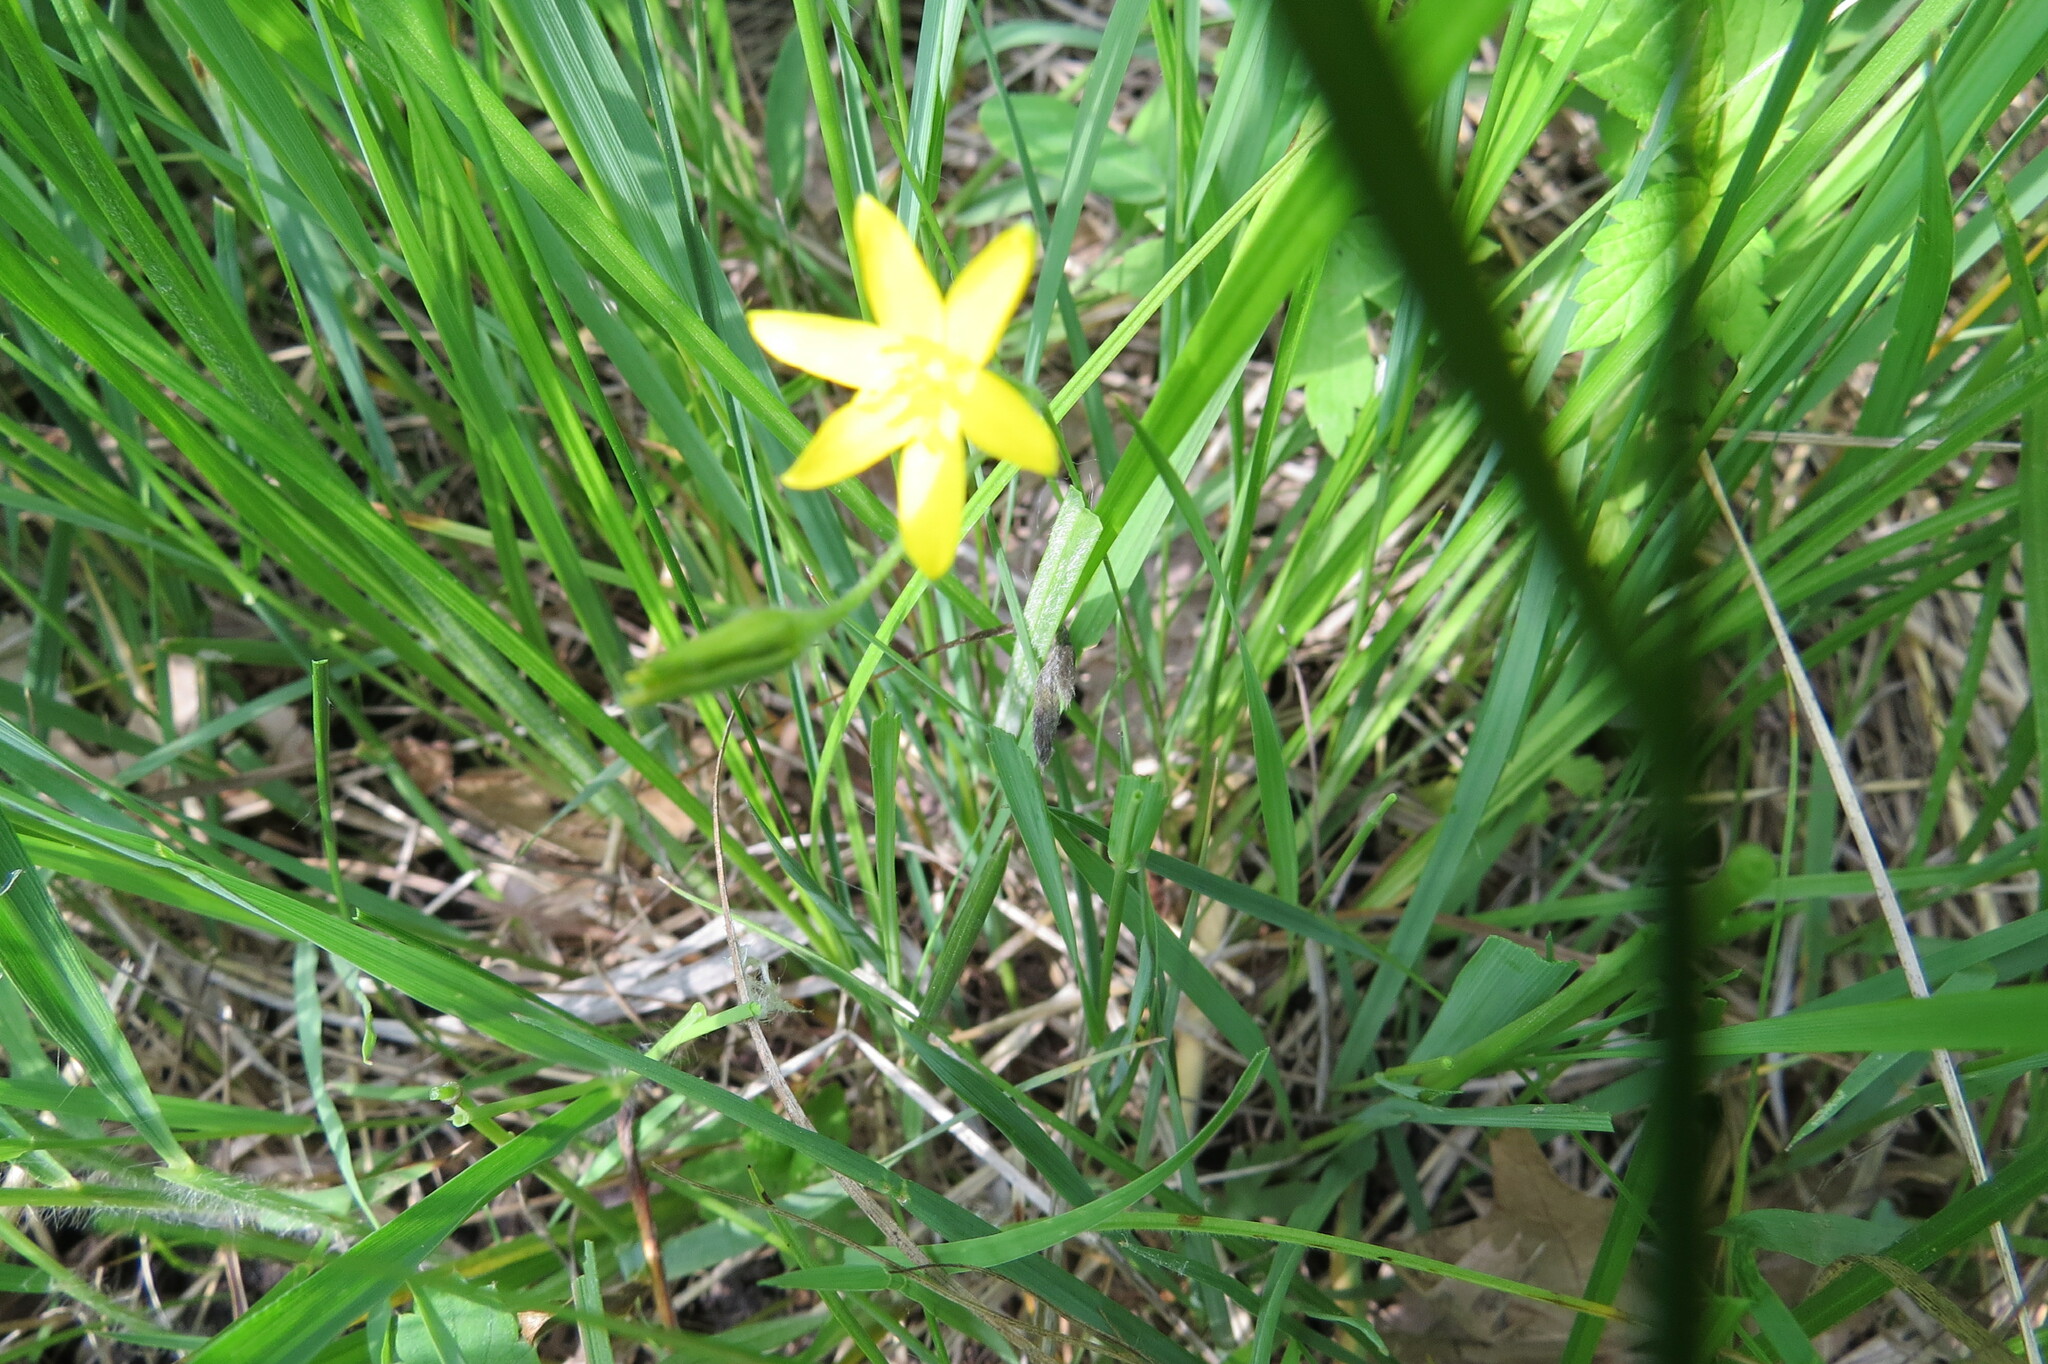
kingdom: Plantae
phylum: Tracheophyta
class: Liliopsida
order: Asparagales
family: Hypoxidaceae
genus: Hypoxis
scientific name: Hypoxis hirsuta
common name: Common goldstar
